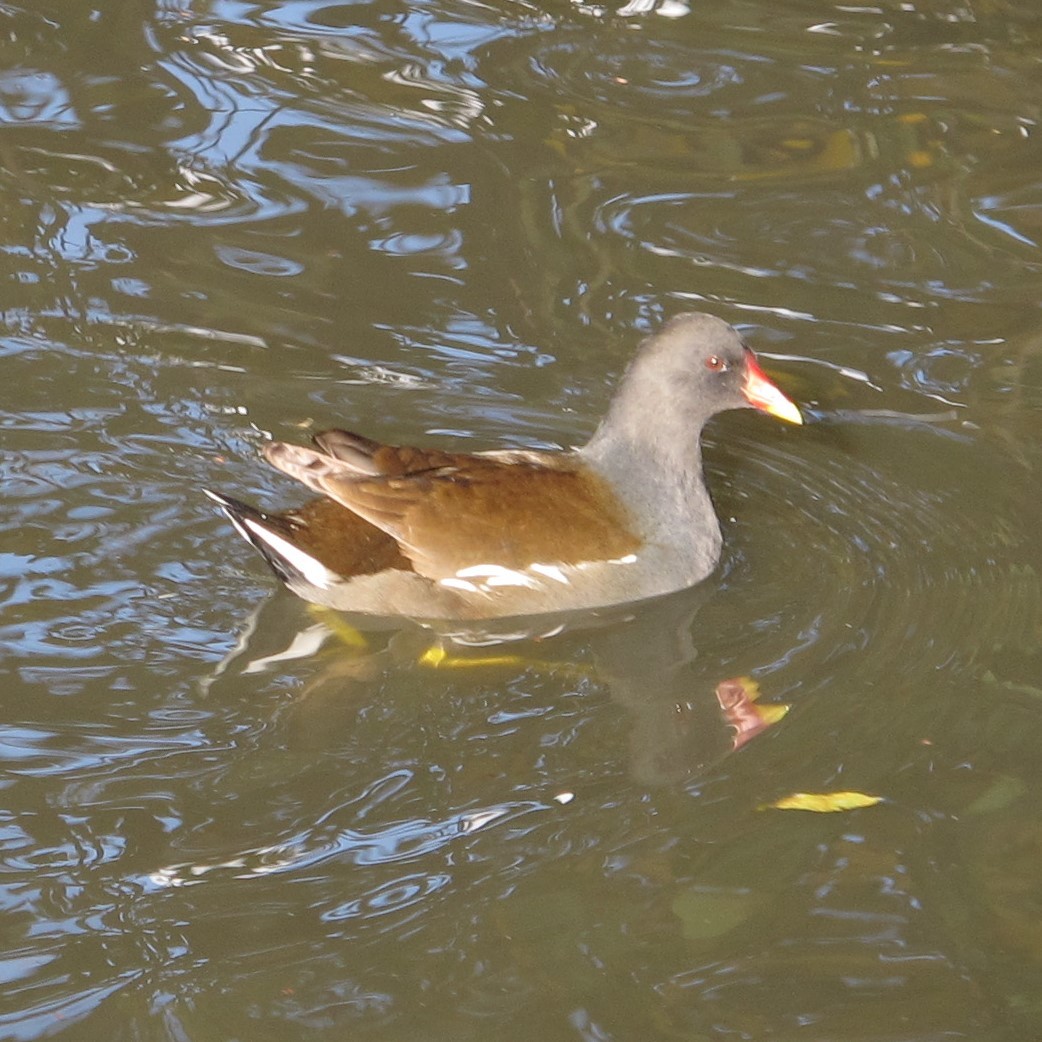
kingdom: Animalia
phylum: Chordata
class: Aves
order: Gruiformes
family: Rallidae
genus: Gallinula
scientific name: Gallinula chloropus
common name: Common moorhen
